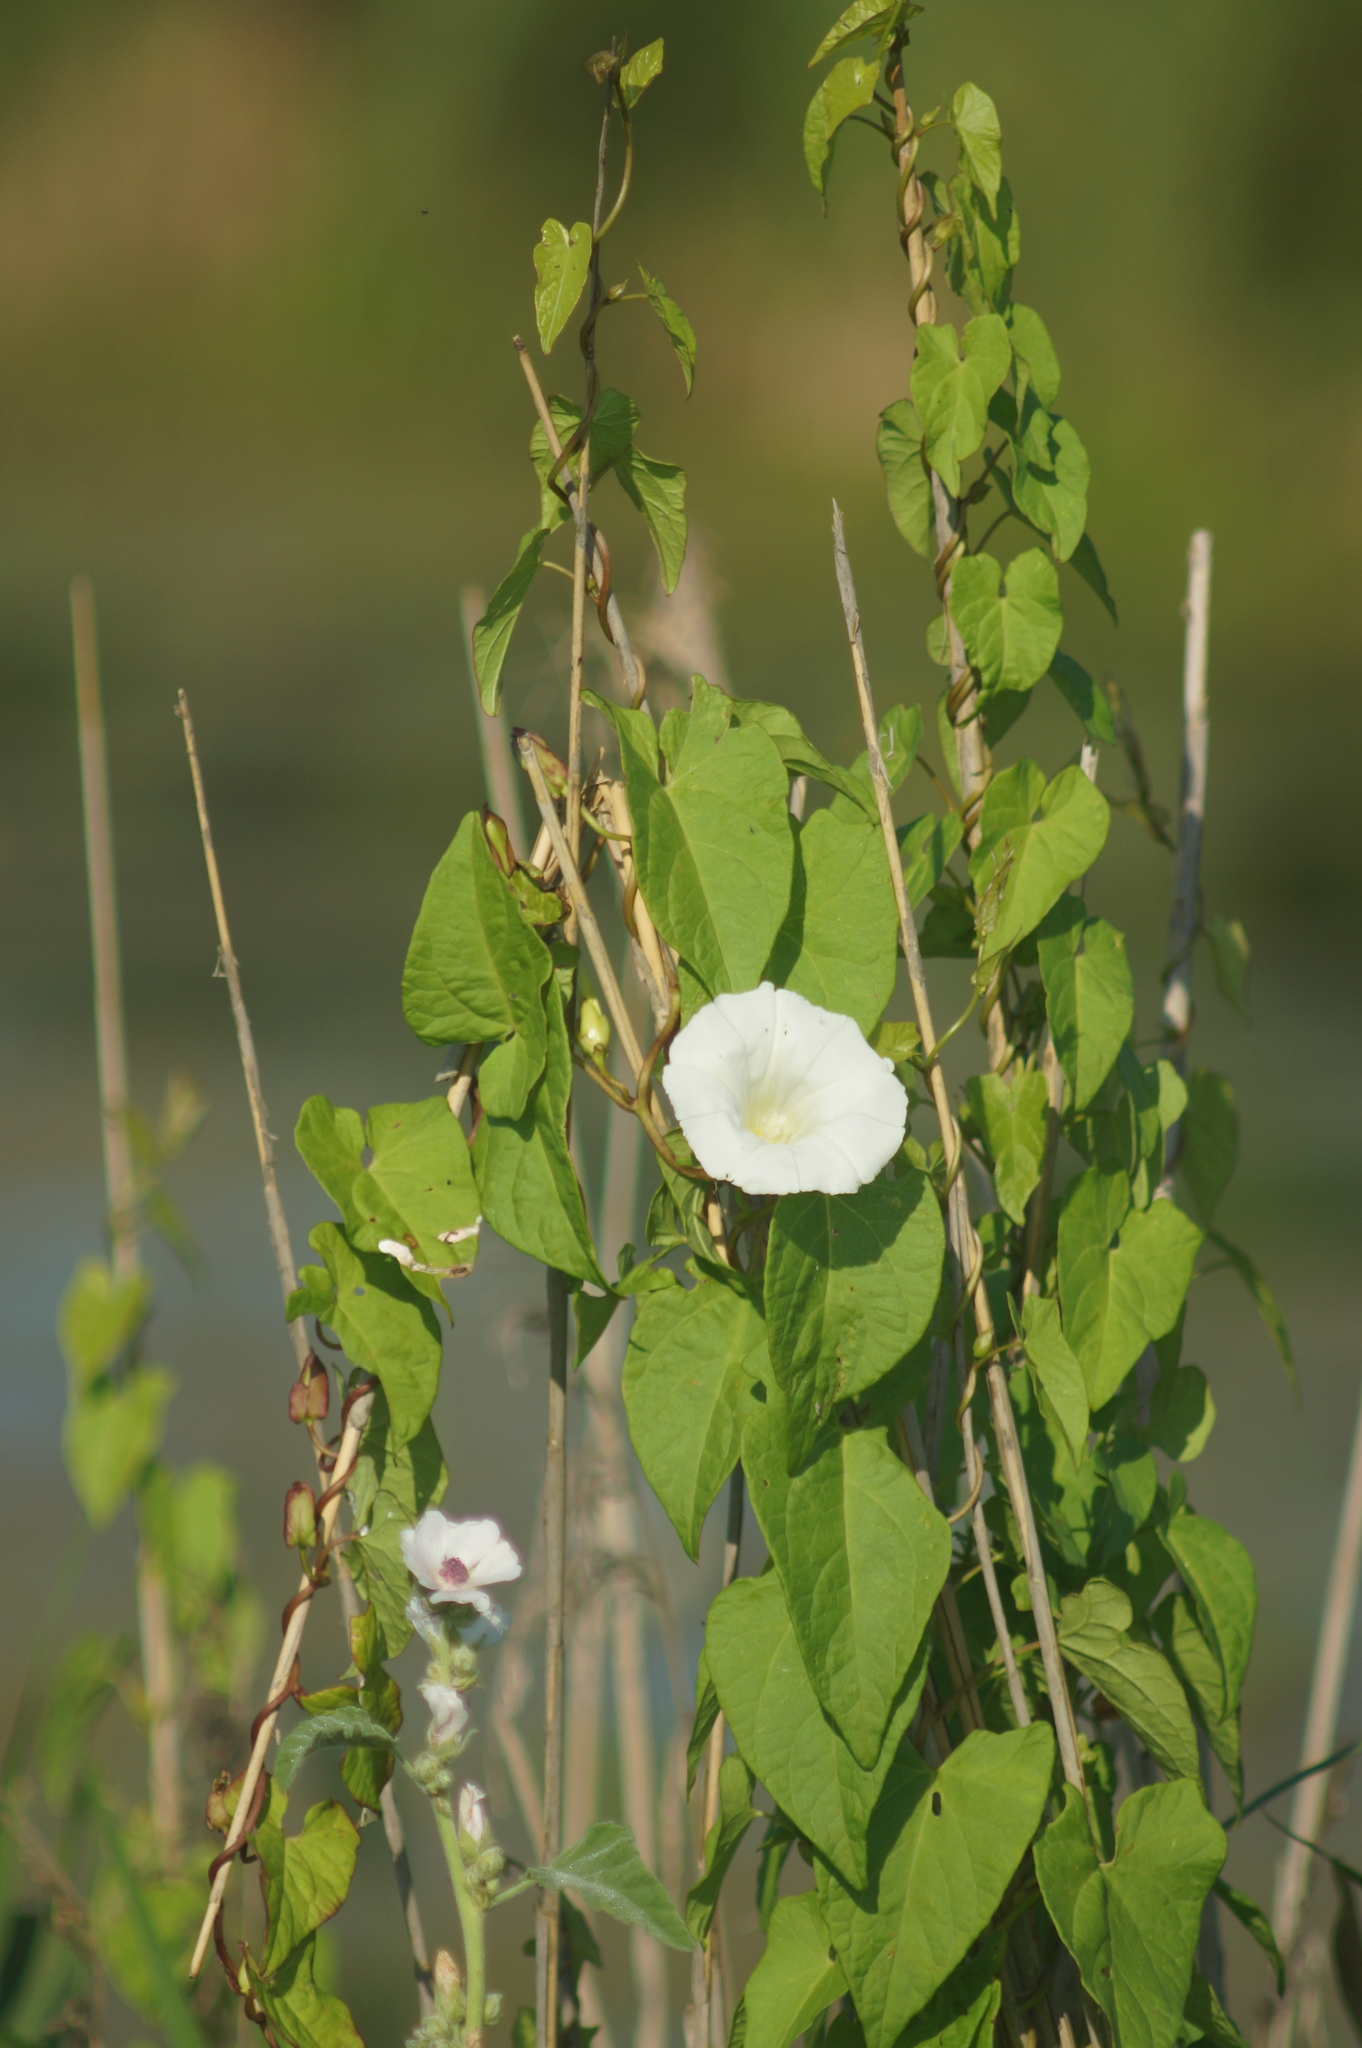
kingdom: Plantae
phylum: Tracheophyta
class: Magnoliopsida
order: Solanales
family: Convolvulaceae
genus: Calystegia
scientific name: Calystegia sepium
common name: Hedge bindweed
